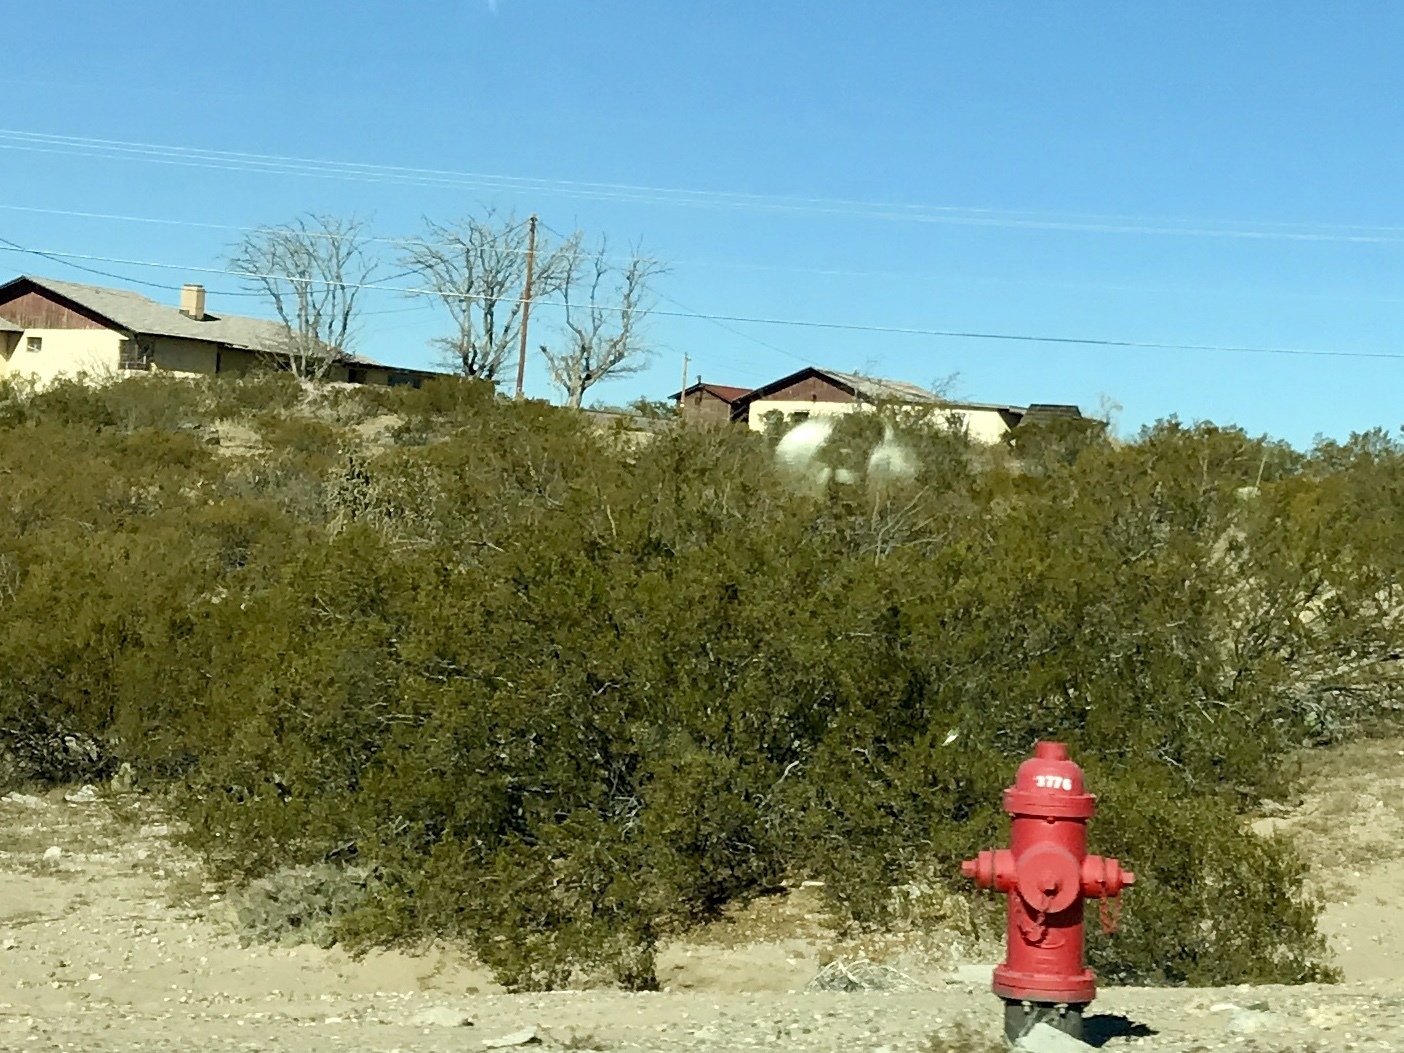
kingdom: Plantae
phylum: Tracheophyta
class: Magnoliopsida
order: Zygophyllales
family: Zygophyllaceae
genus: Larrea
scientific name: Larrea tridentata
